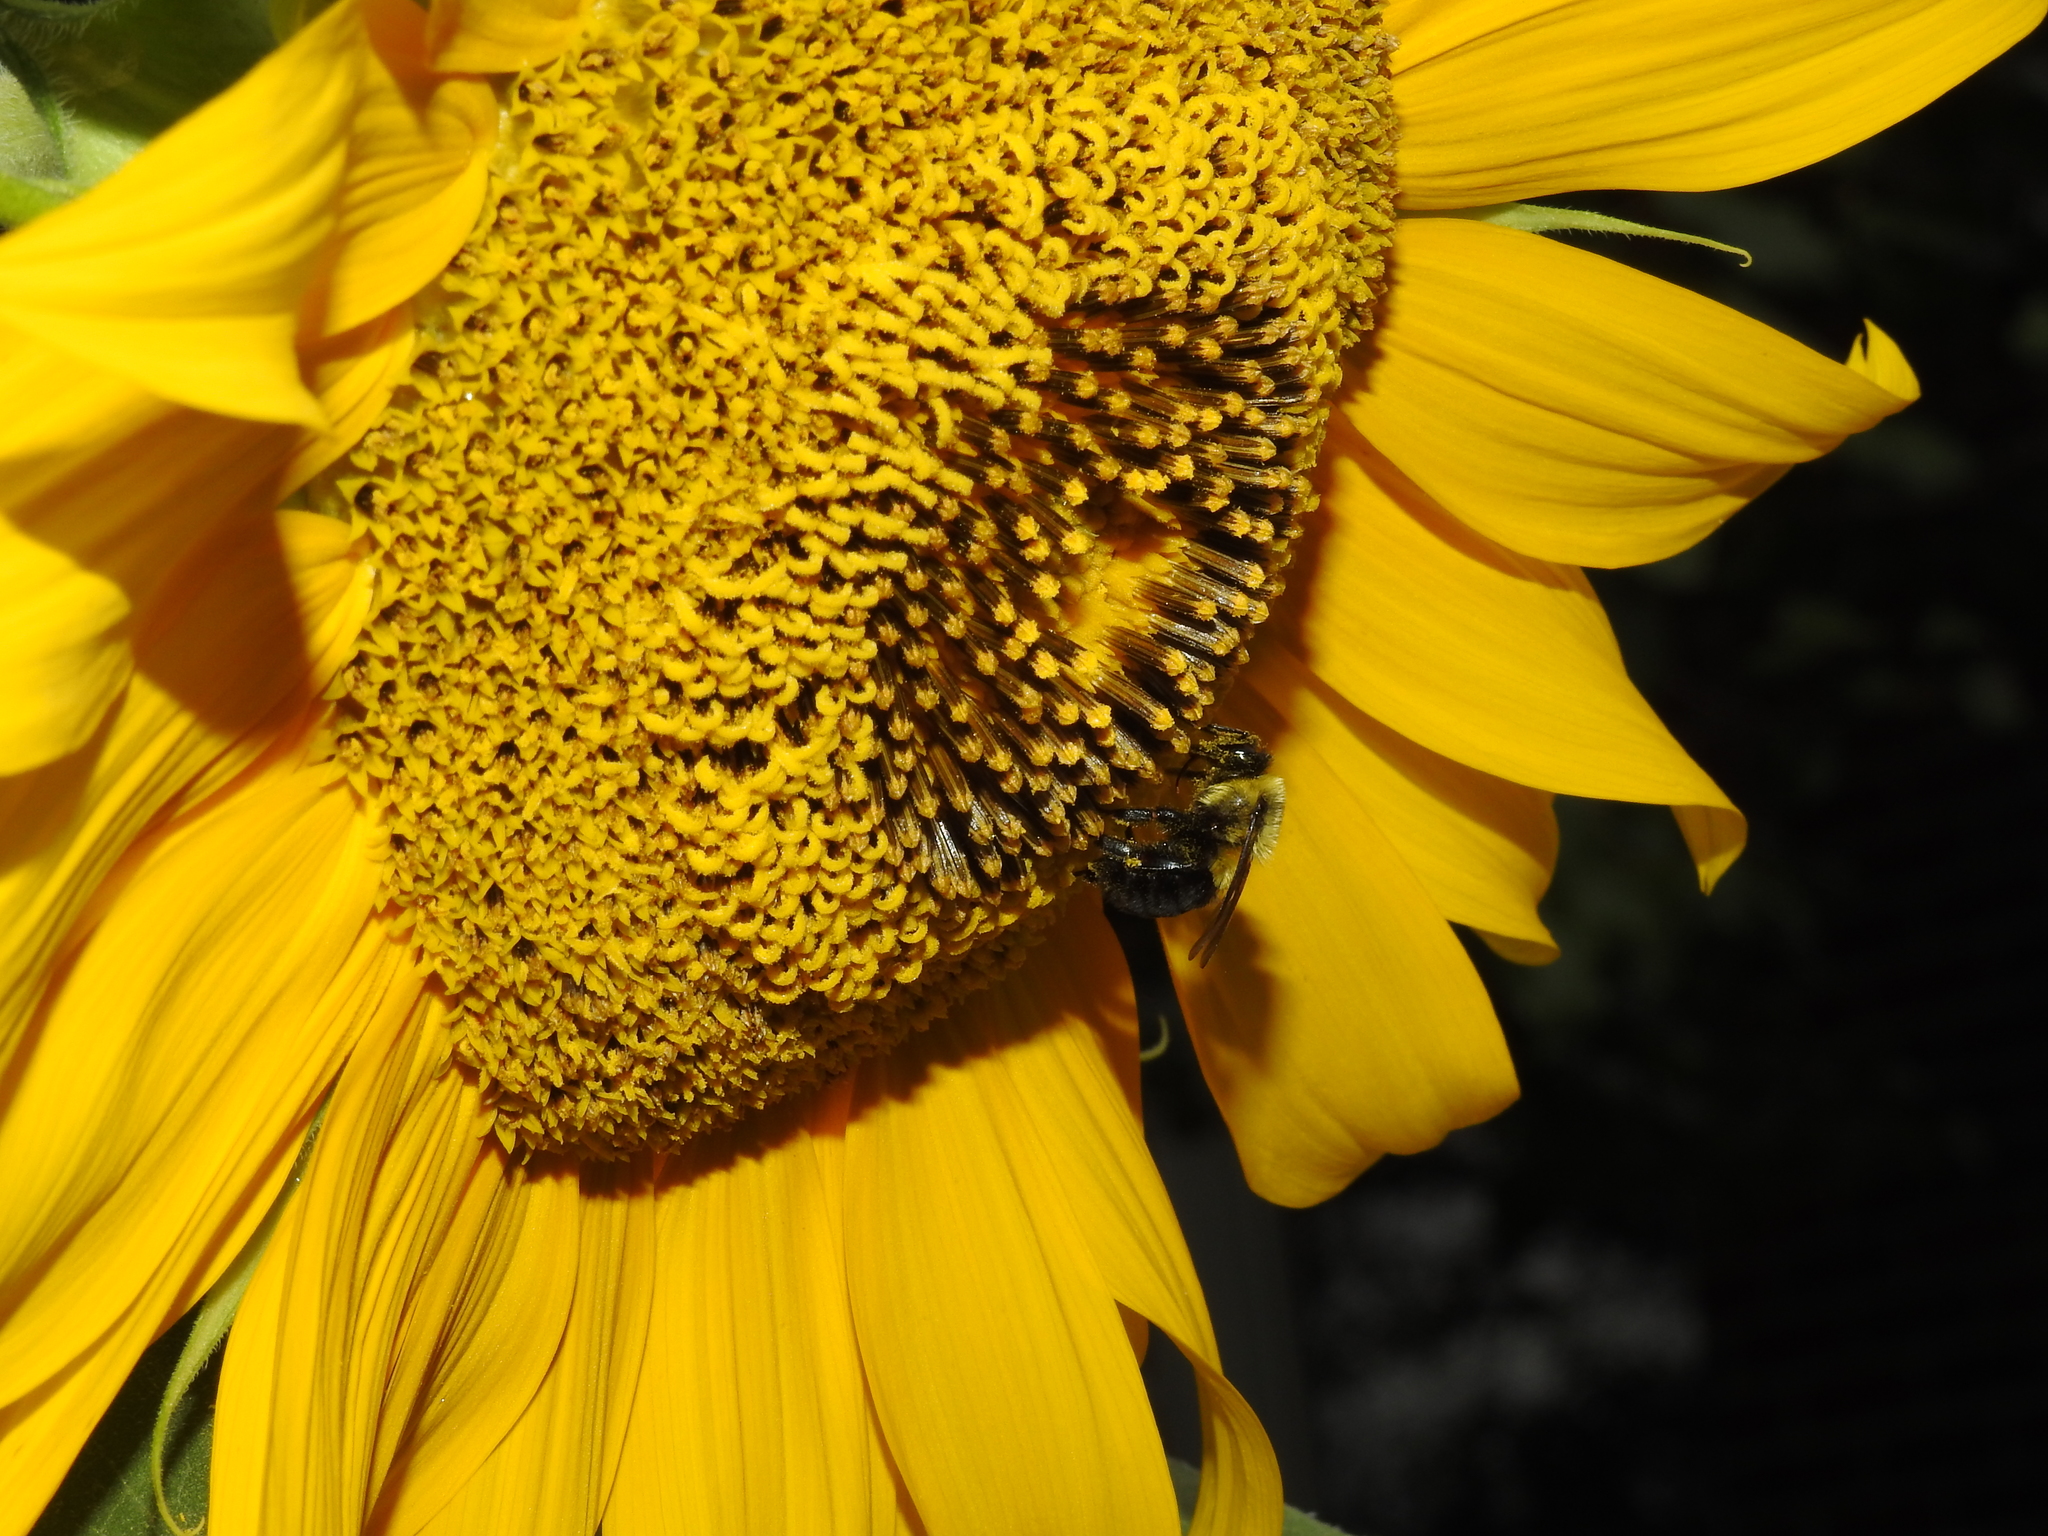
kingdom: Animalia
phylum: Arthropoda
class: Insecta
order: Hymenoptera
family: Apidae
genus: Bombus
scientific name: Bombus impatiens
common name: Common eastern bumble bee
